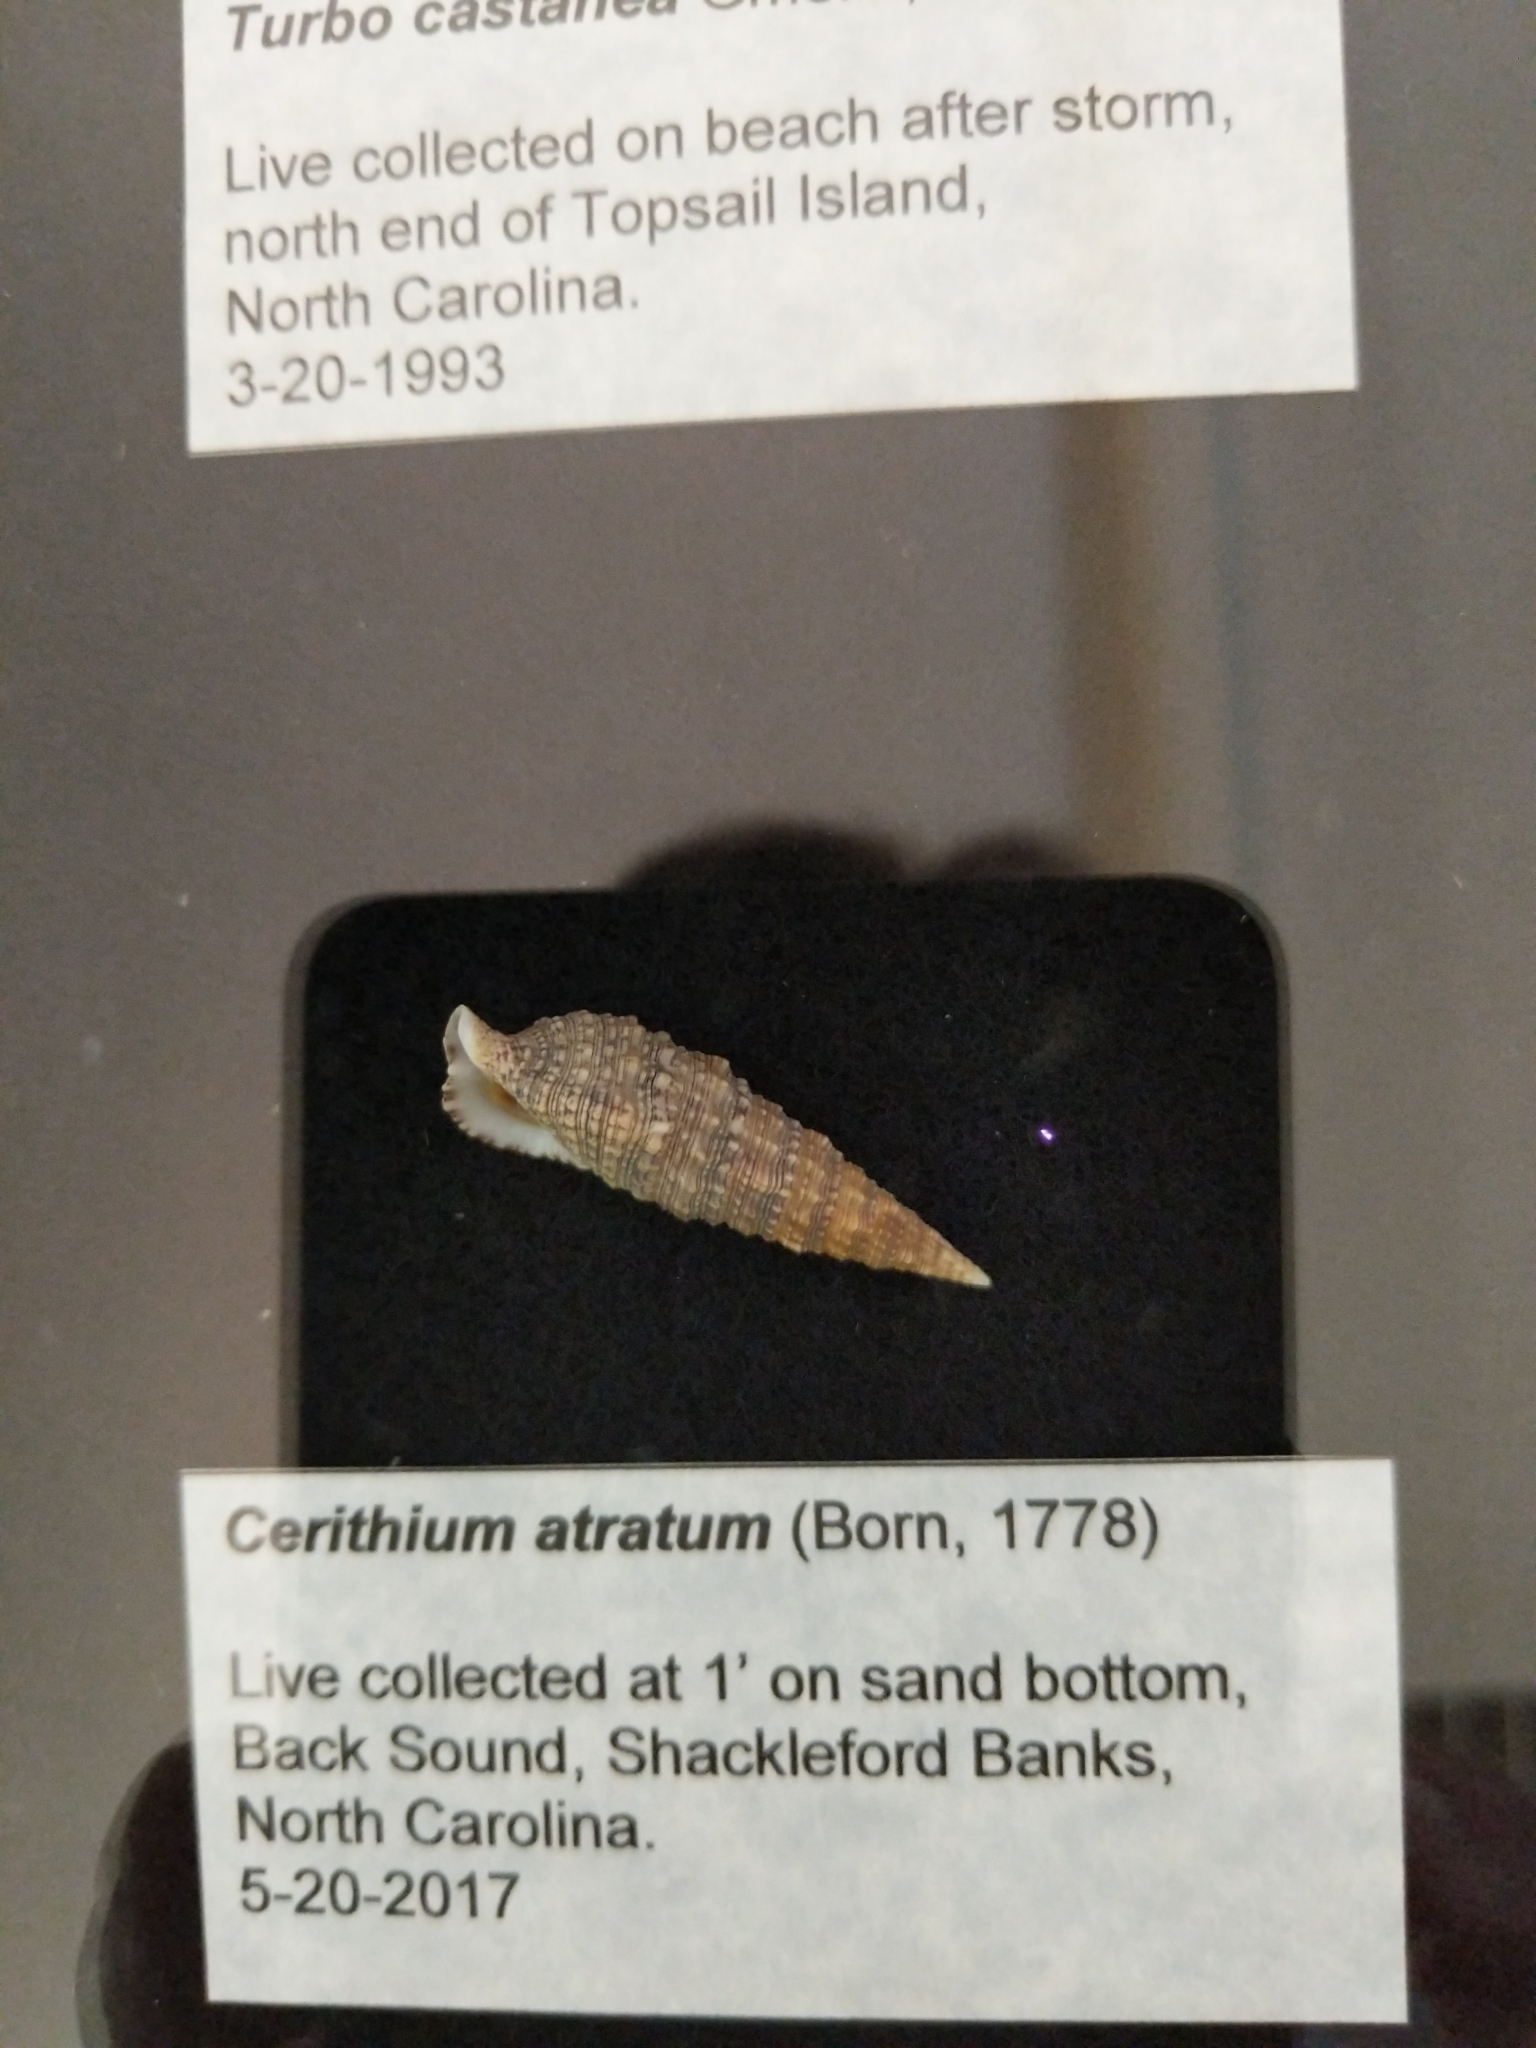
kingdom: Animalia
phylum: Mollusca
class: Gastropoda
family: Cerithiidae
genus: Cerithium
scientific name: Cerithium atratum
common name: Dark cerith
